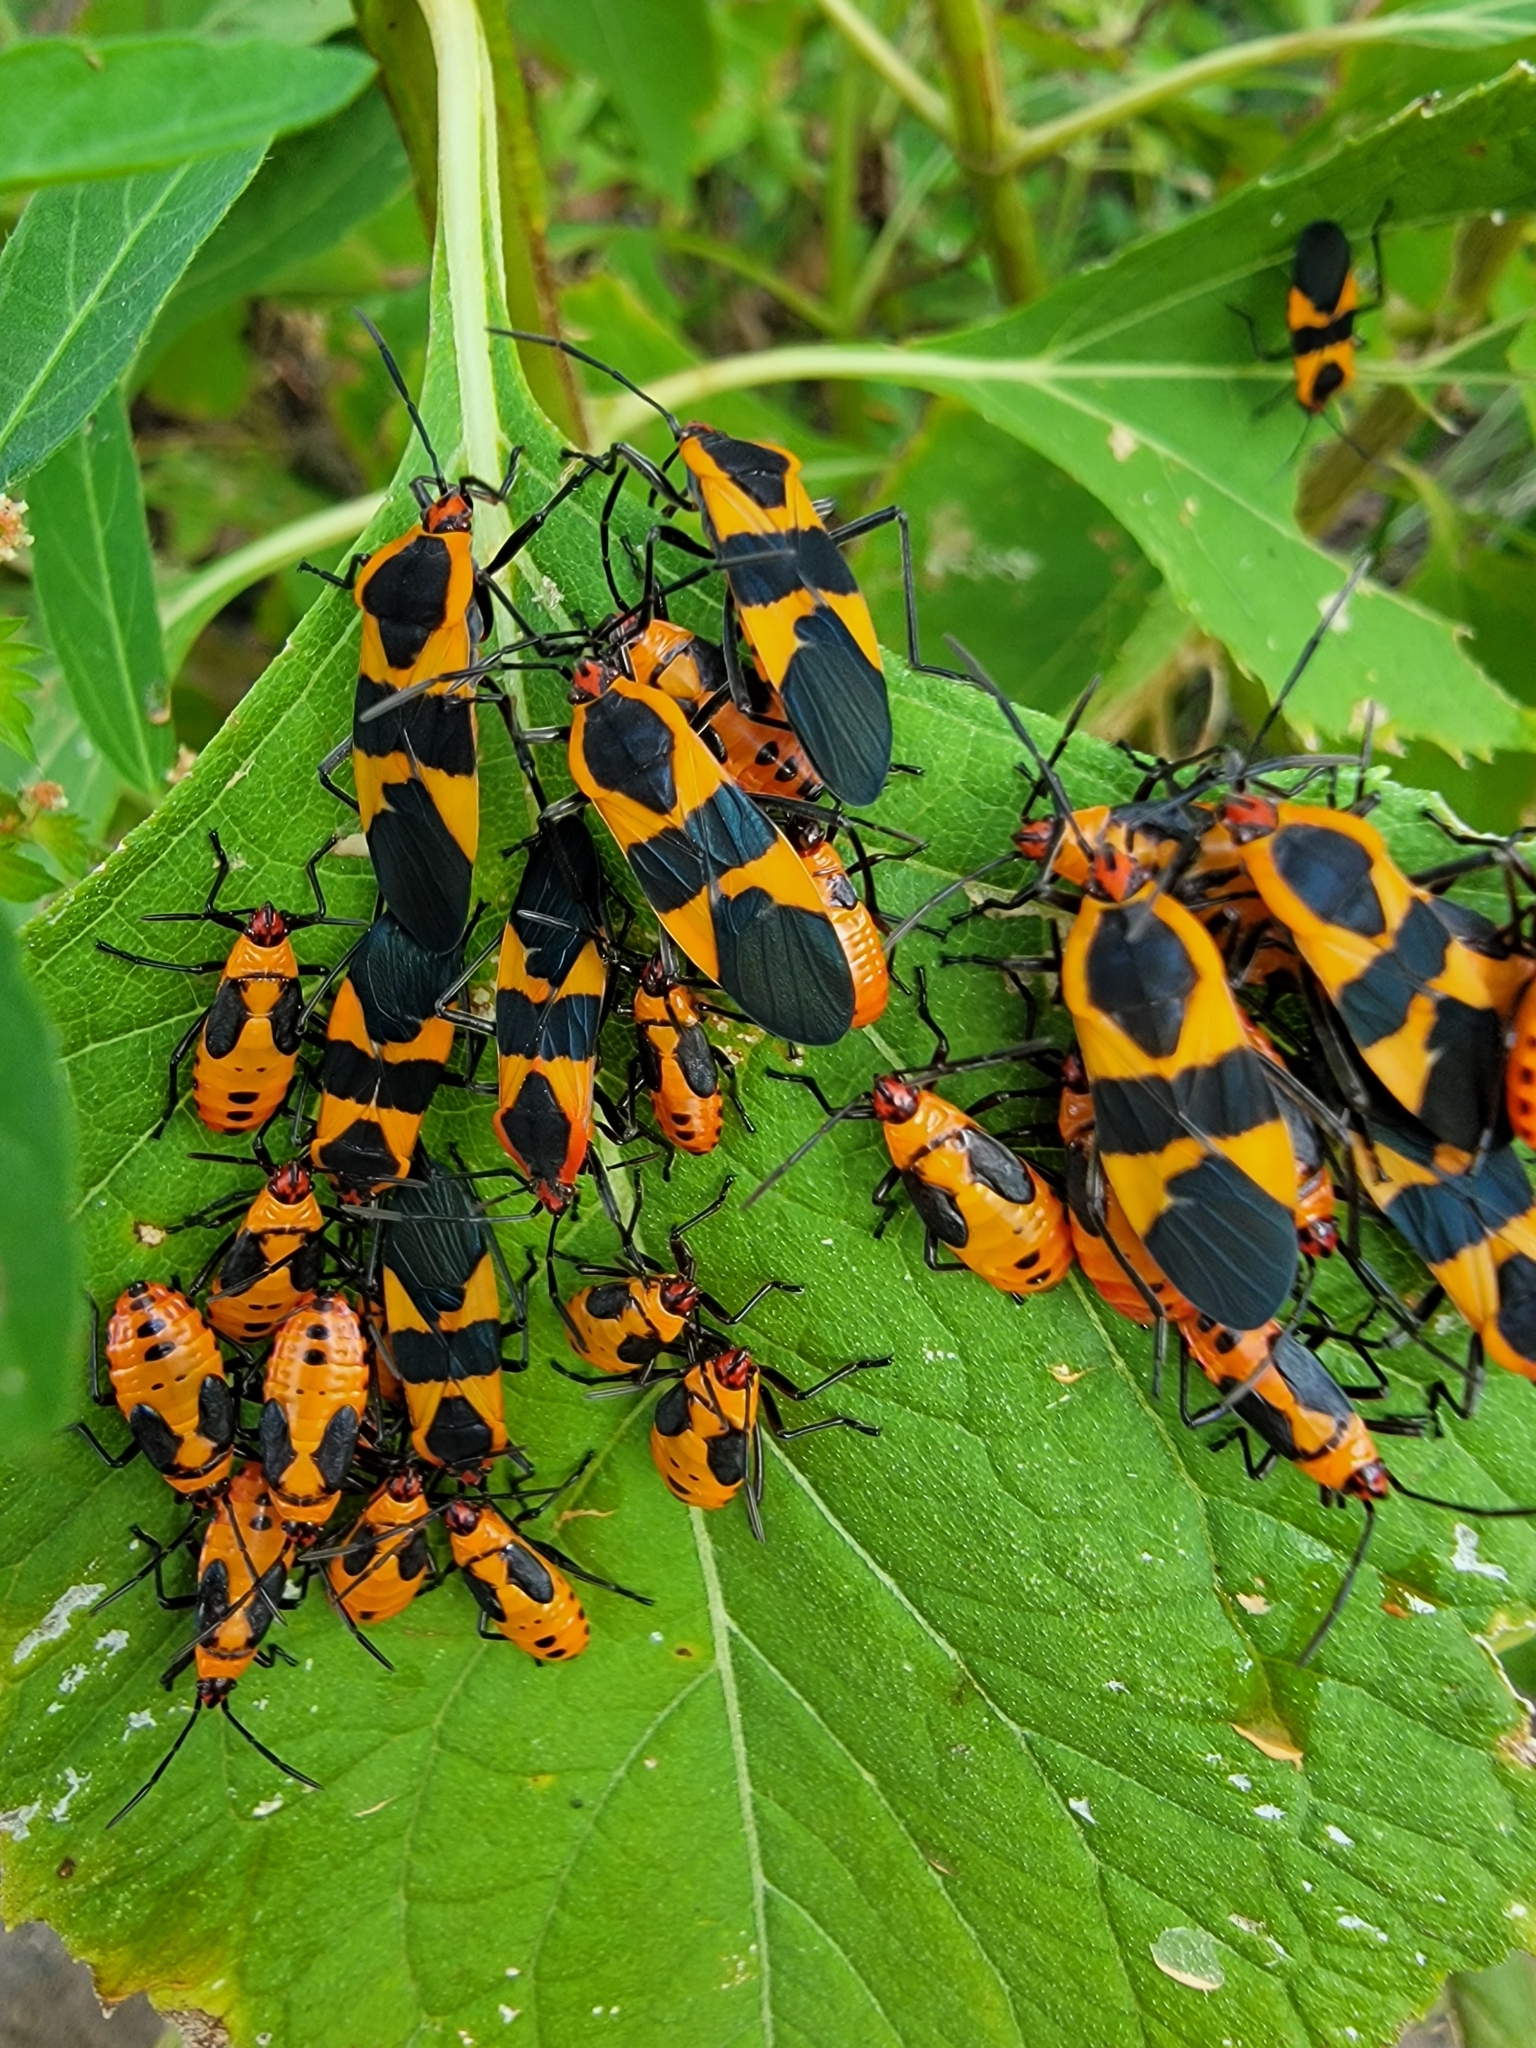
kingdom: Animalia
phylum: Arthropoda
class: Insecta
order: Hemiptera
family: Lygaeidae
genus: Oncopeltus
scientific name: Oncopeltus fasciatus
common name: Large milkweed bug
